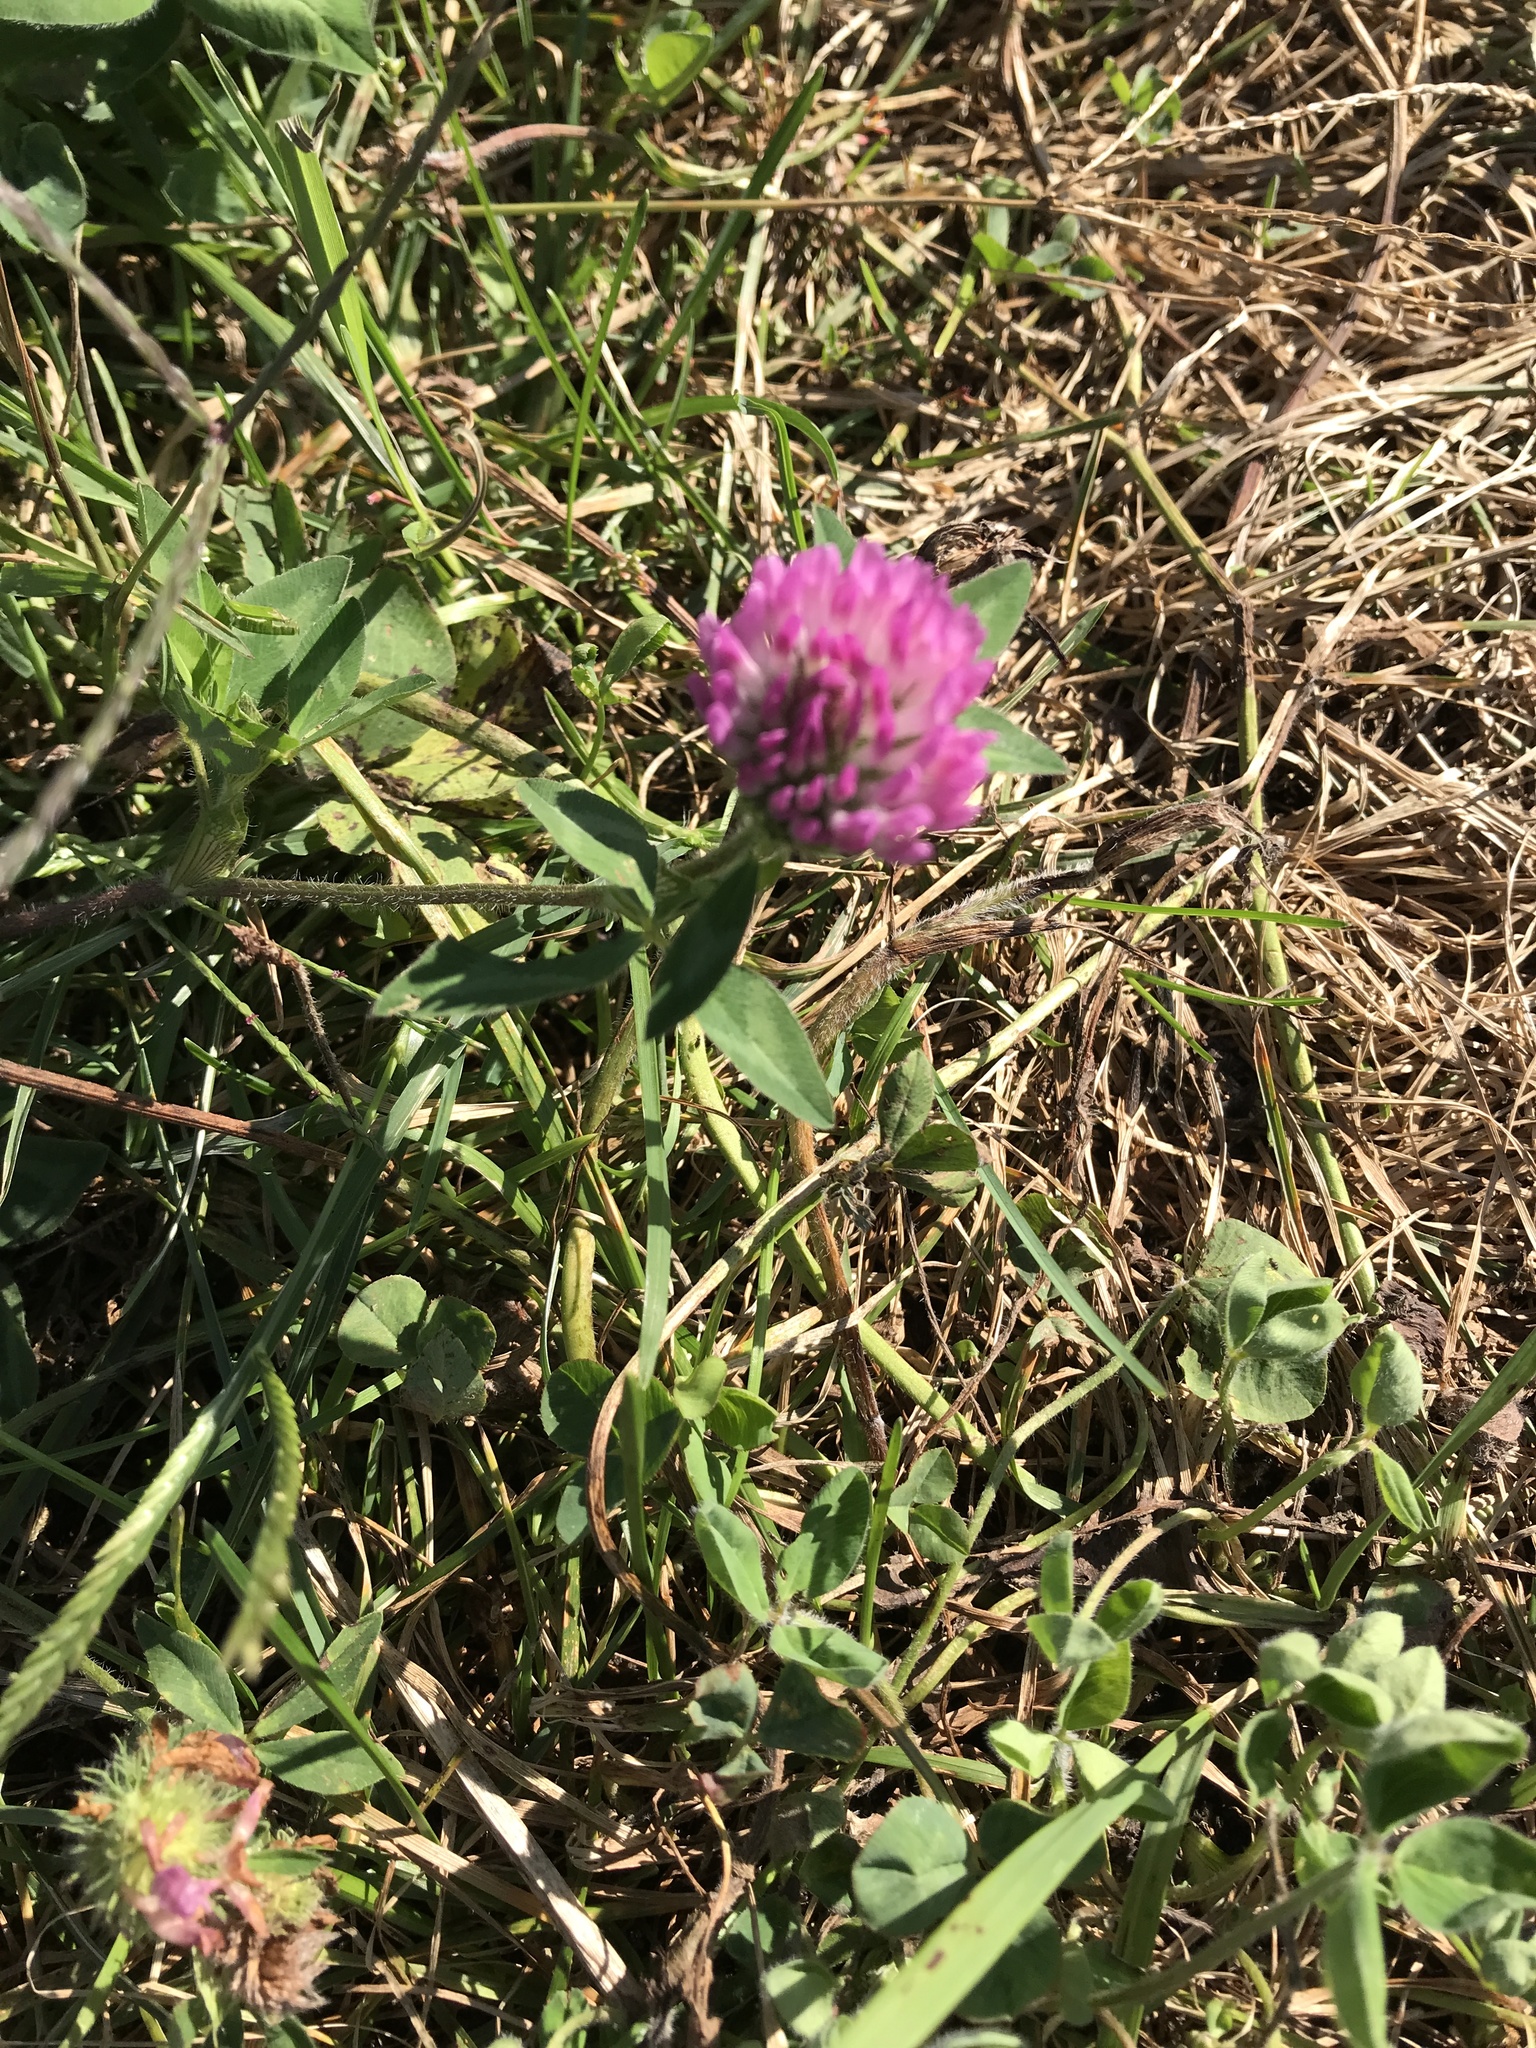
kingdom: Plantae
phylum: Tracheophyta
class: Magnoliopsida
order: Fabales
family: Fabaceae
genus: Trifolium
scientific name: Trifolium pratense
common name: Red clover
